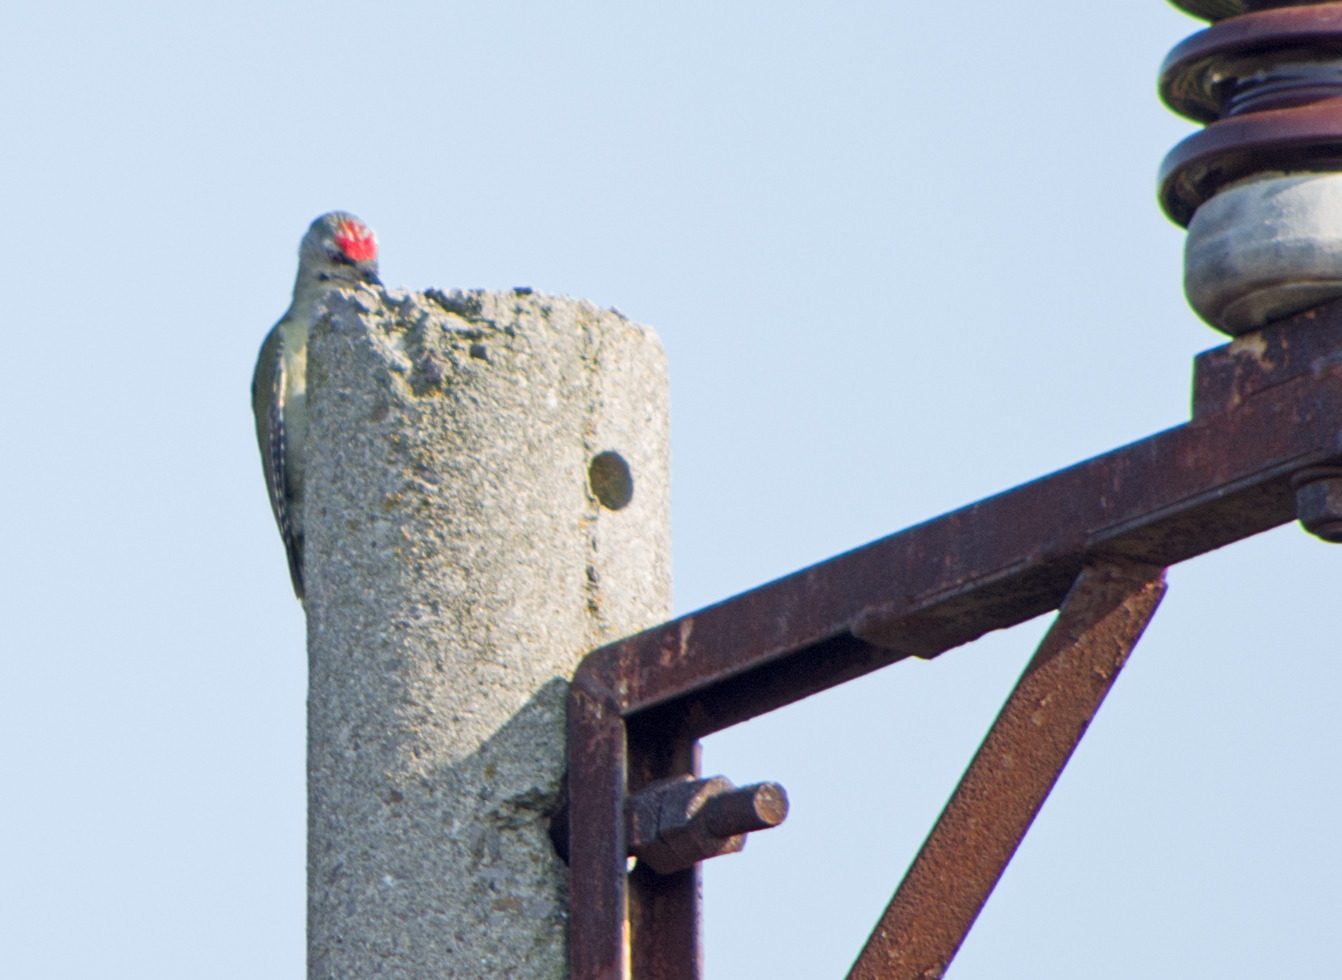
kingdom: Animalia
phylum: Chordata
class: Aves
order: Piciformes
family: Picidae
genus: Picus
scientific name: Picus canus
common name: Grey-headed woodpecker
